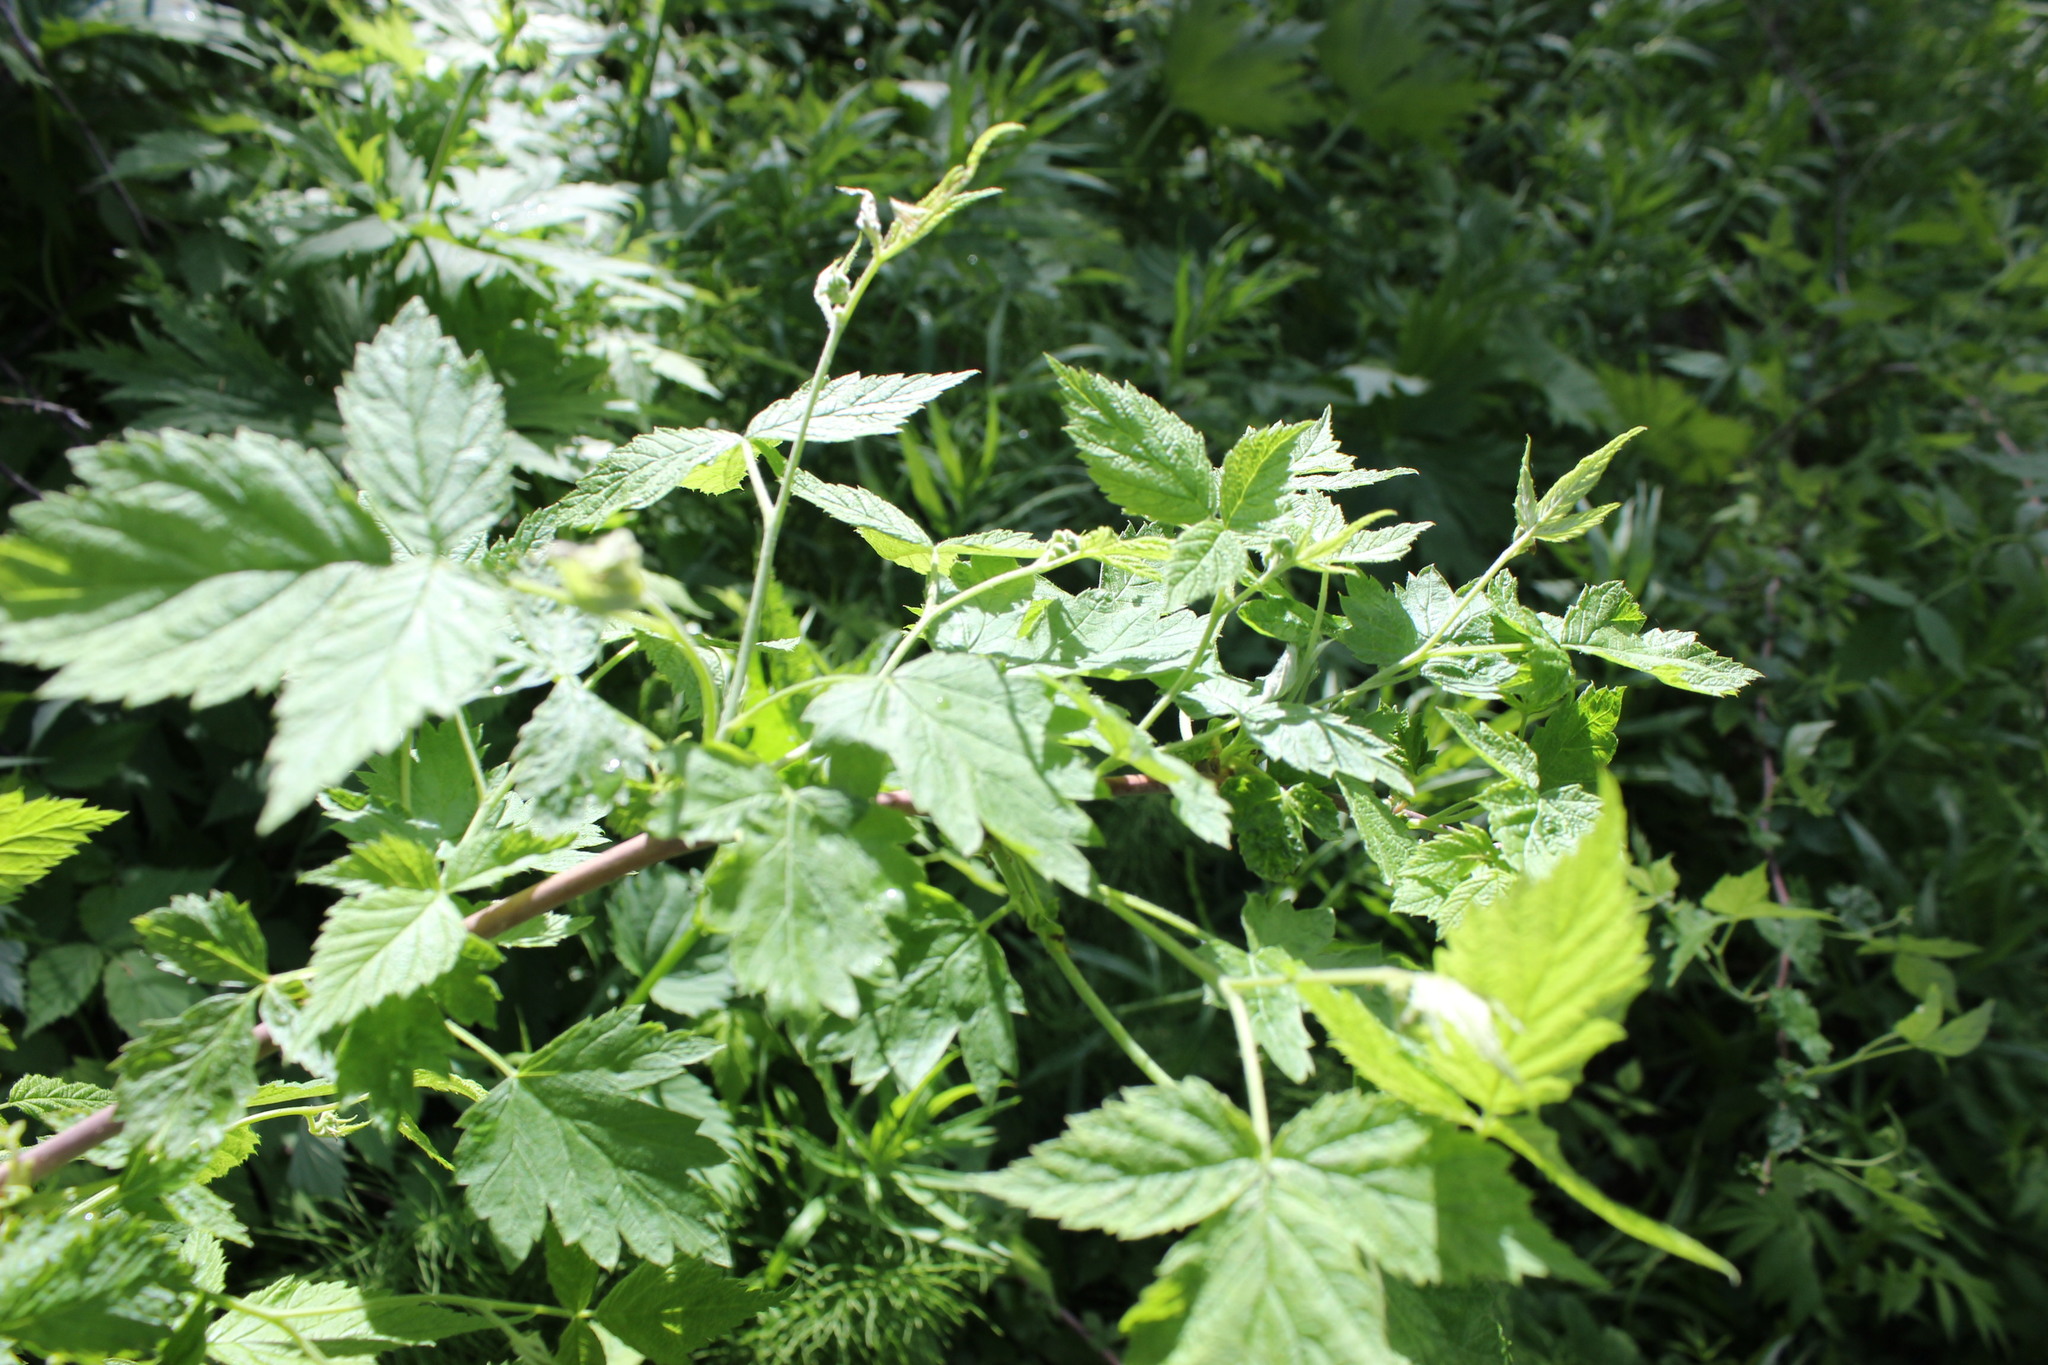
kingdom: Plantae
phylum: Tracheophyta
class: Magnoliopsida
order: Rosales
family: Rosaceae
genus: Rubus
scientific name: Rubus idaeus
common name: Raspberry
